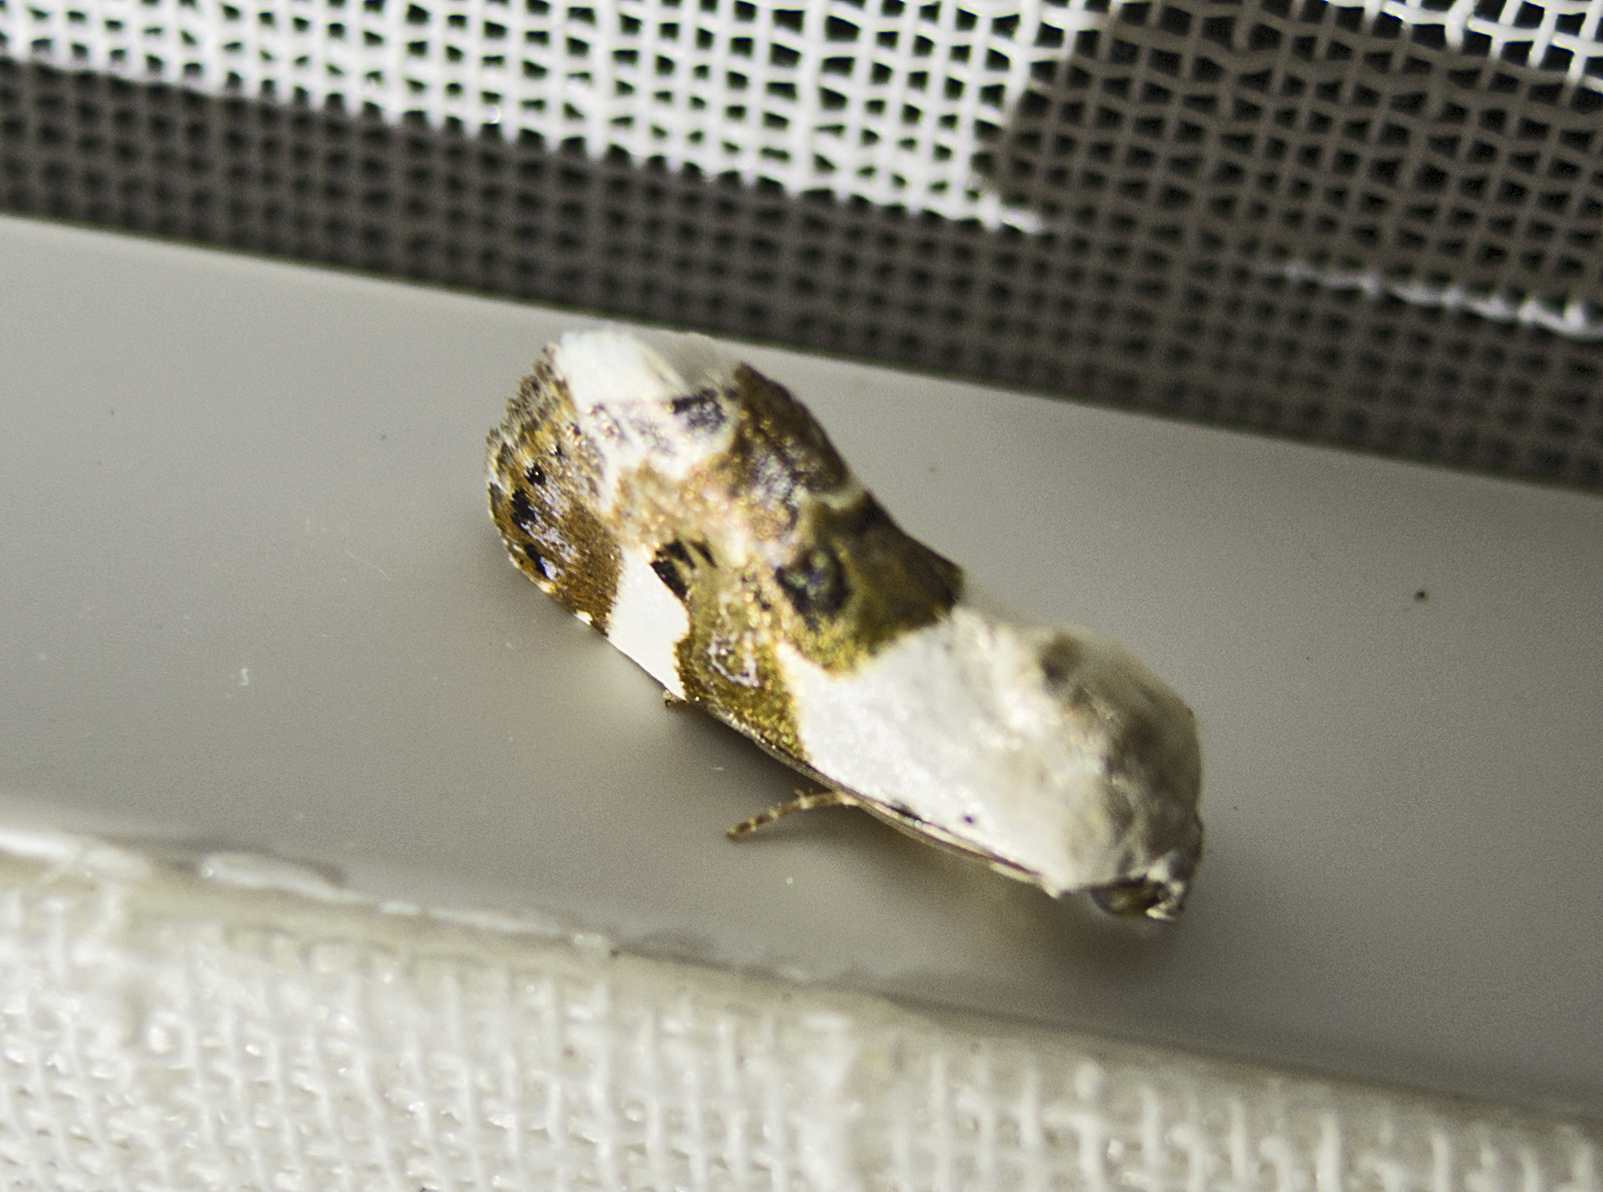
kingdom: Animalia
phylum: Arthropoda
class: Insecta
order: Lepidoptera
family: Noctuidae
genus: Acontia
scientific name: Acontia lucida
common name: Pale shoulder
